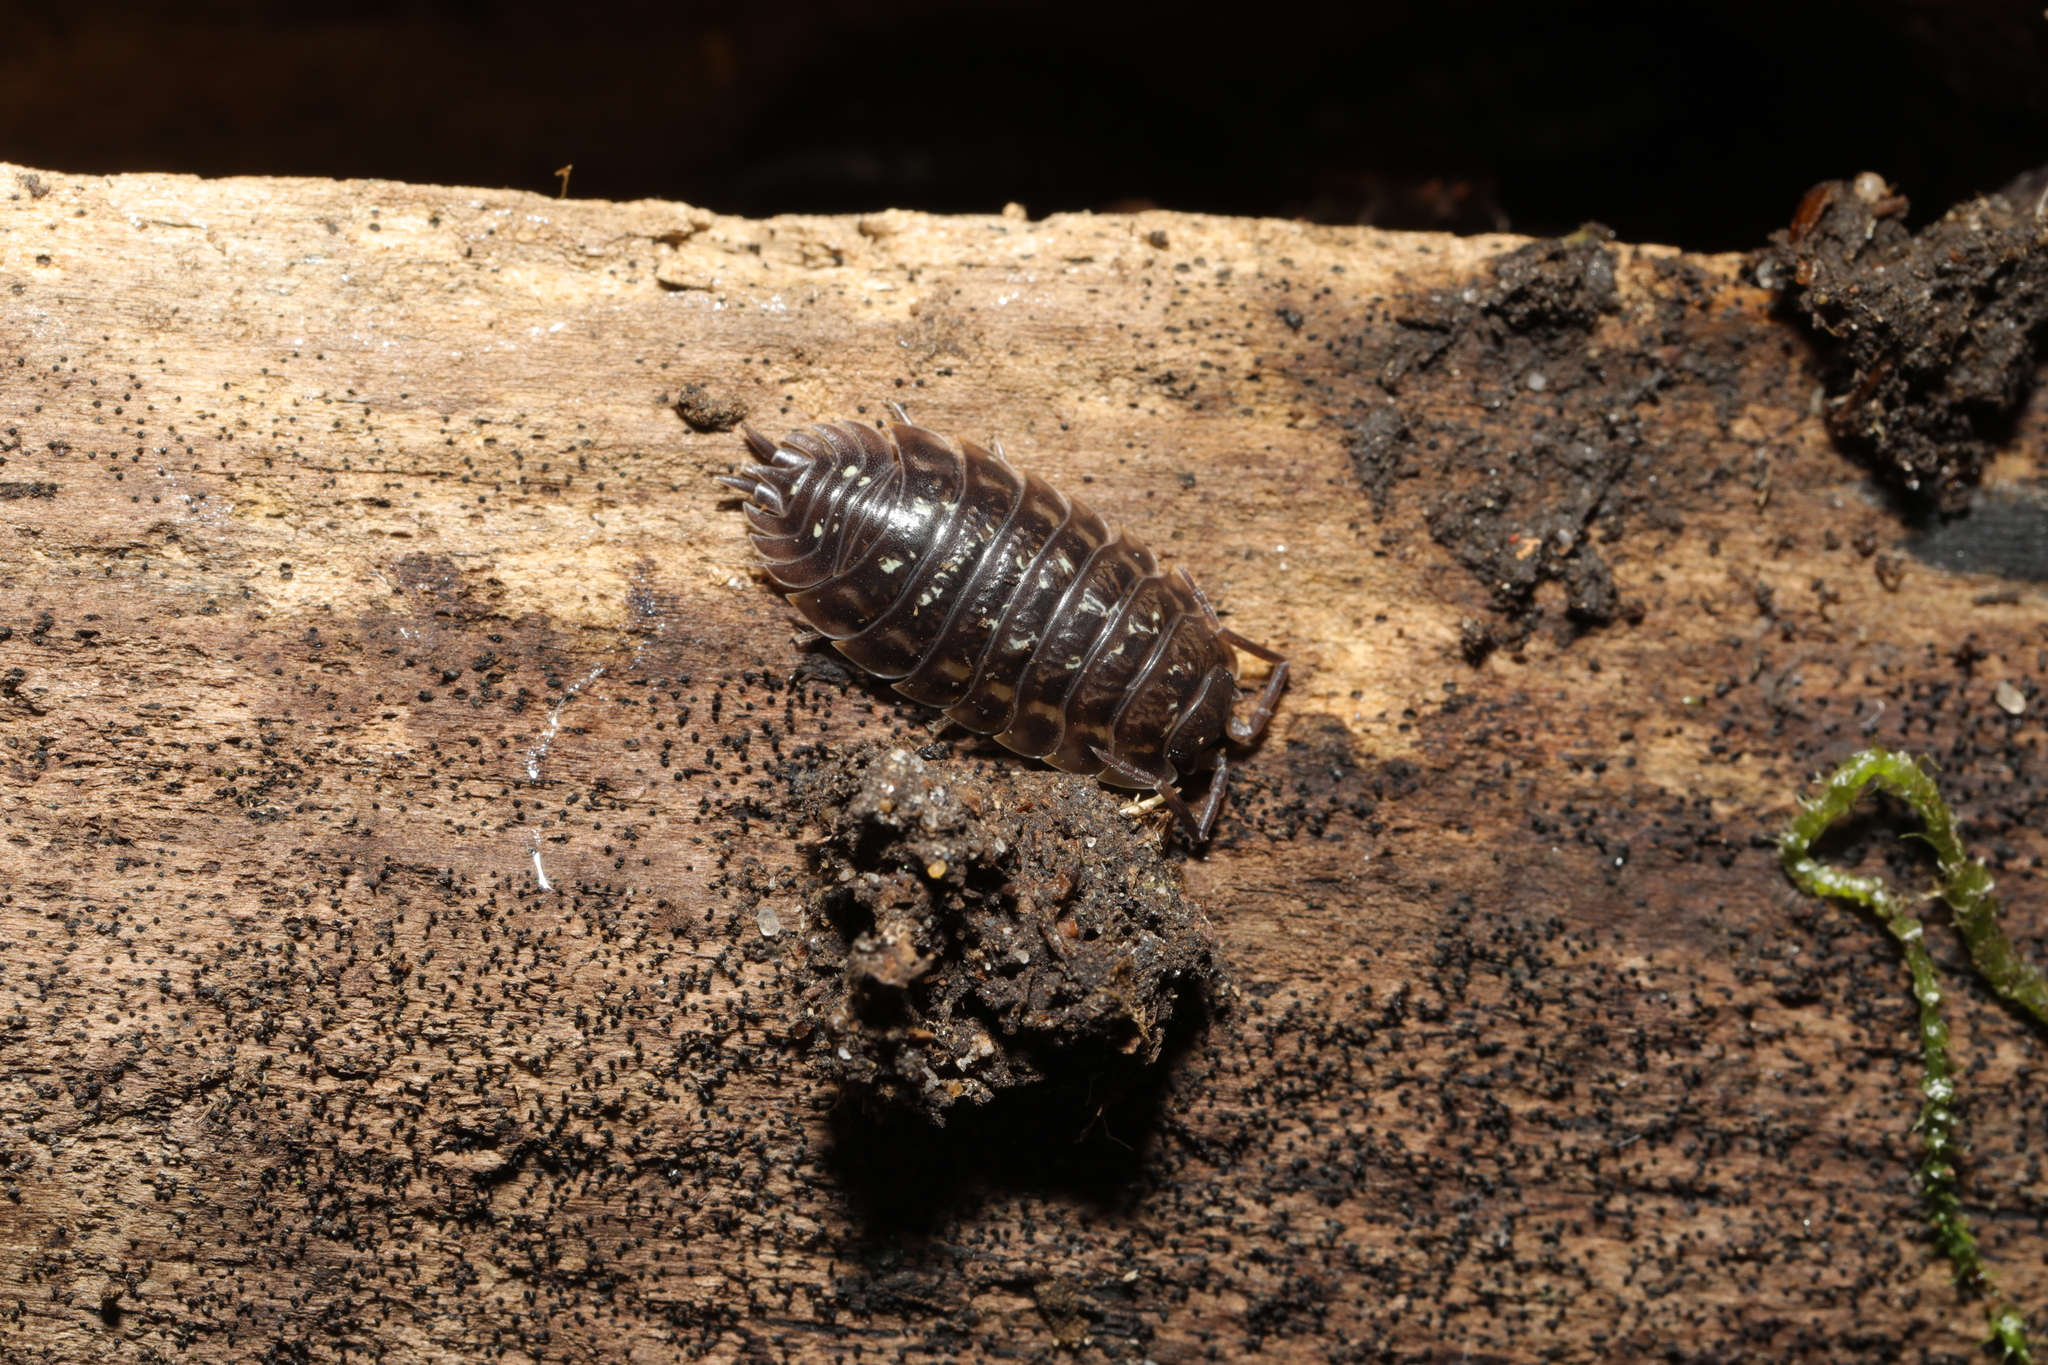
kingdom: Animalia
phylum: Arthropoda
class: Malacostraca
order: Isopoda
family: Oniscidae
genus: Oniscus
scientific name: Oniscus asellus
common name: Common shiny woodlouse
